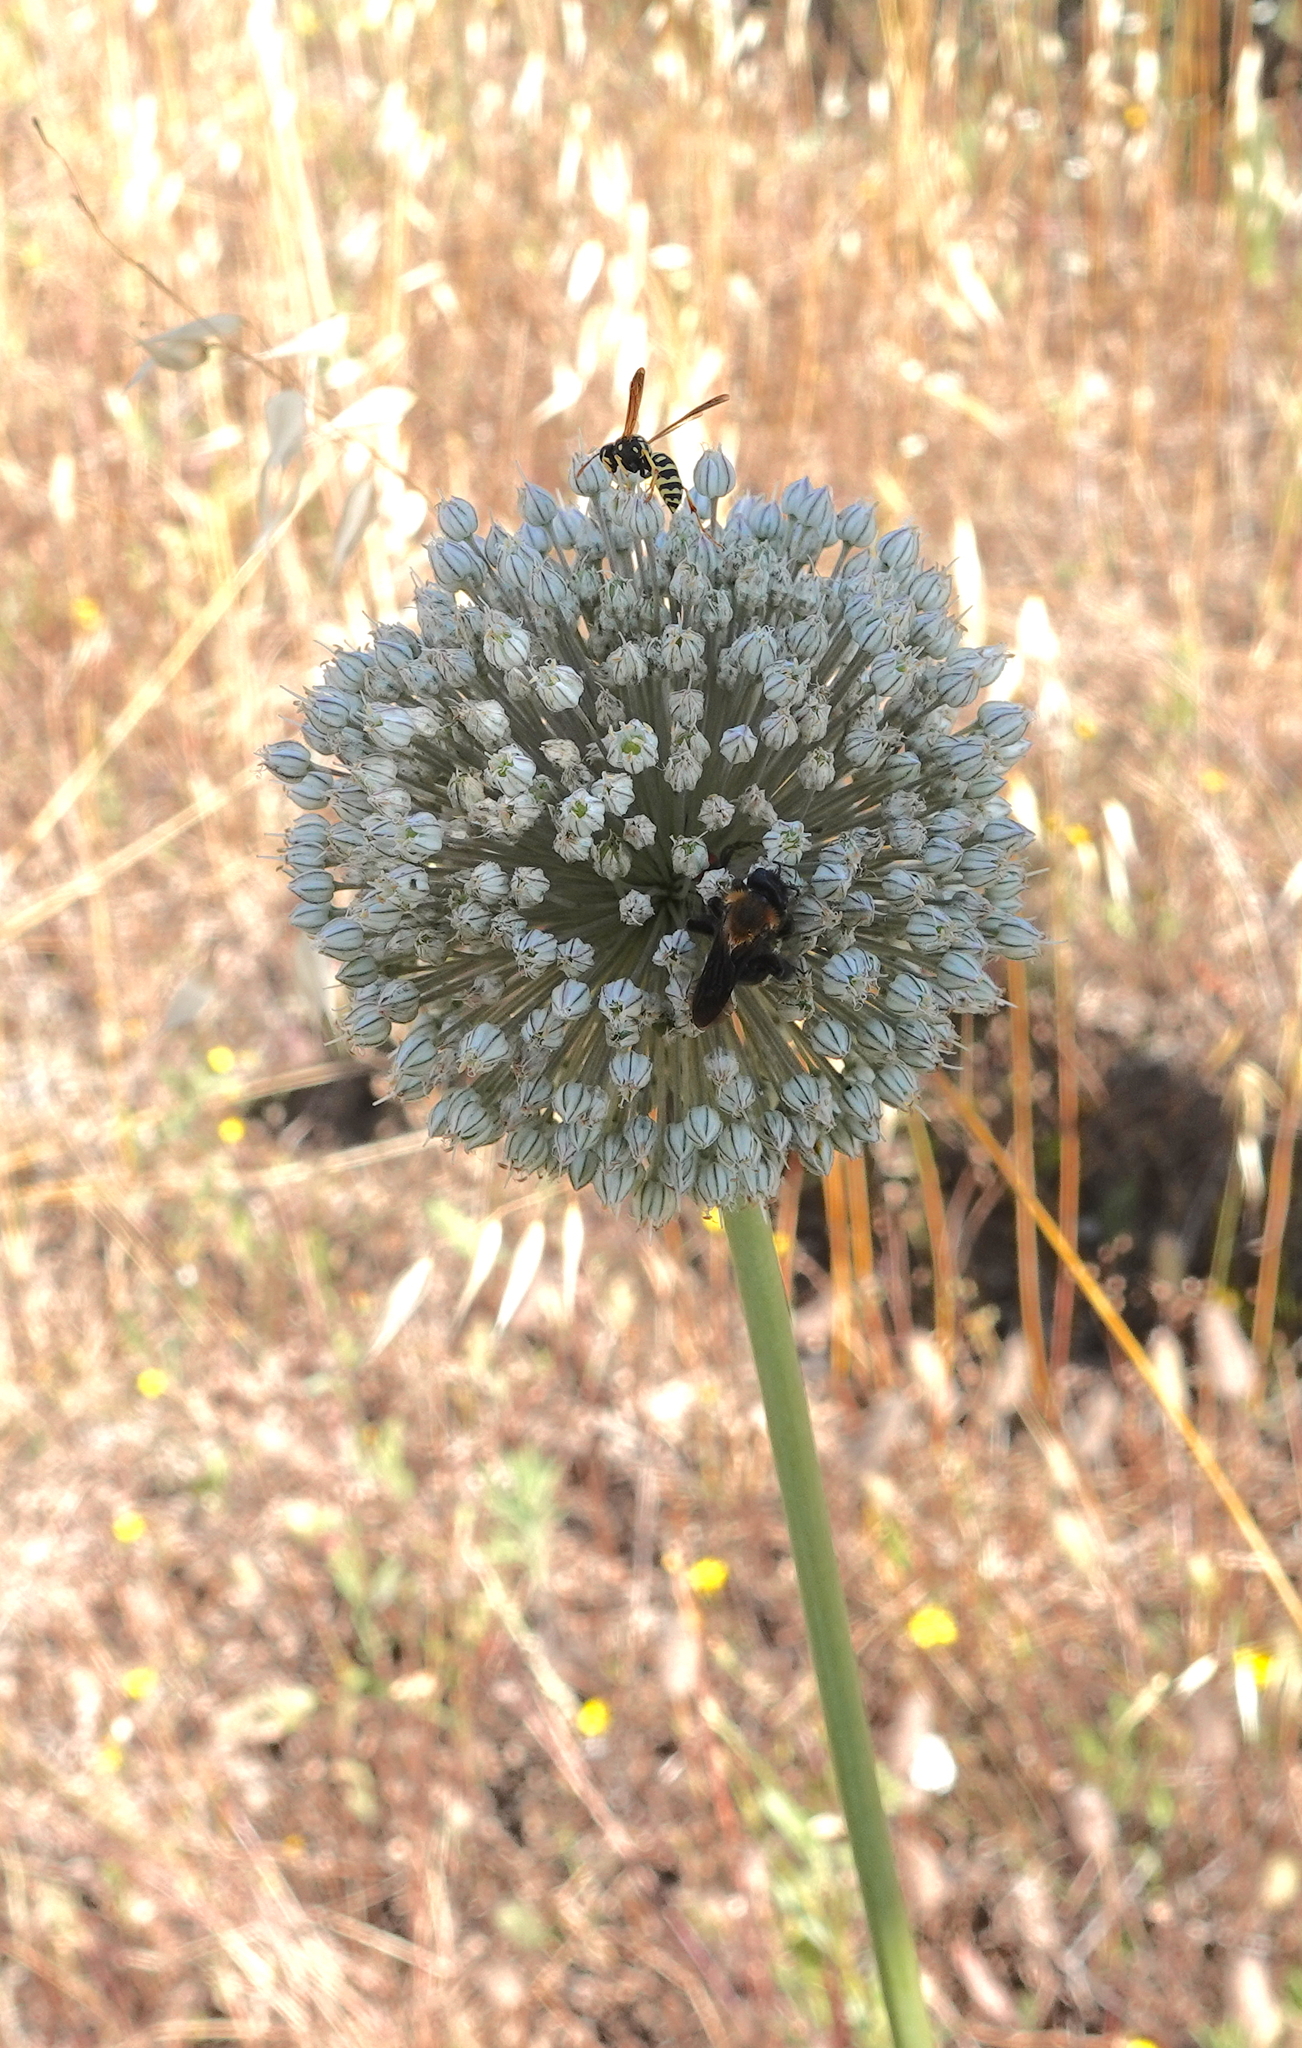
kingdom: Plantae
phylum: Tracheophyta
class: Liliopsida
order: Asparagales
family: Amaryllidaceae
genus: Allium
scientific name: Allium ampeloprasum
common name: Wild leek
